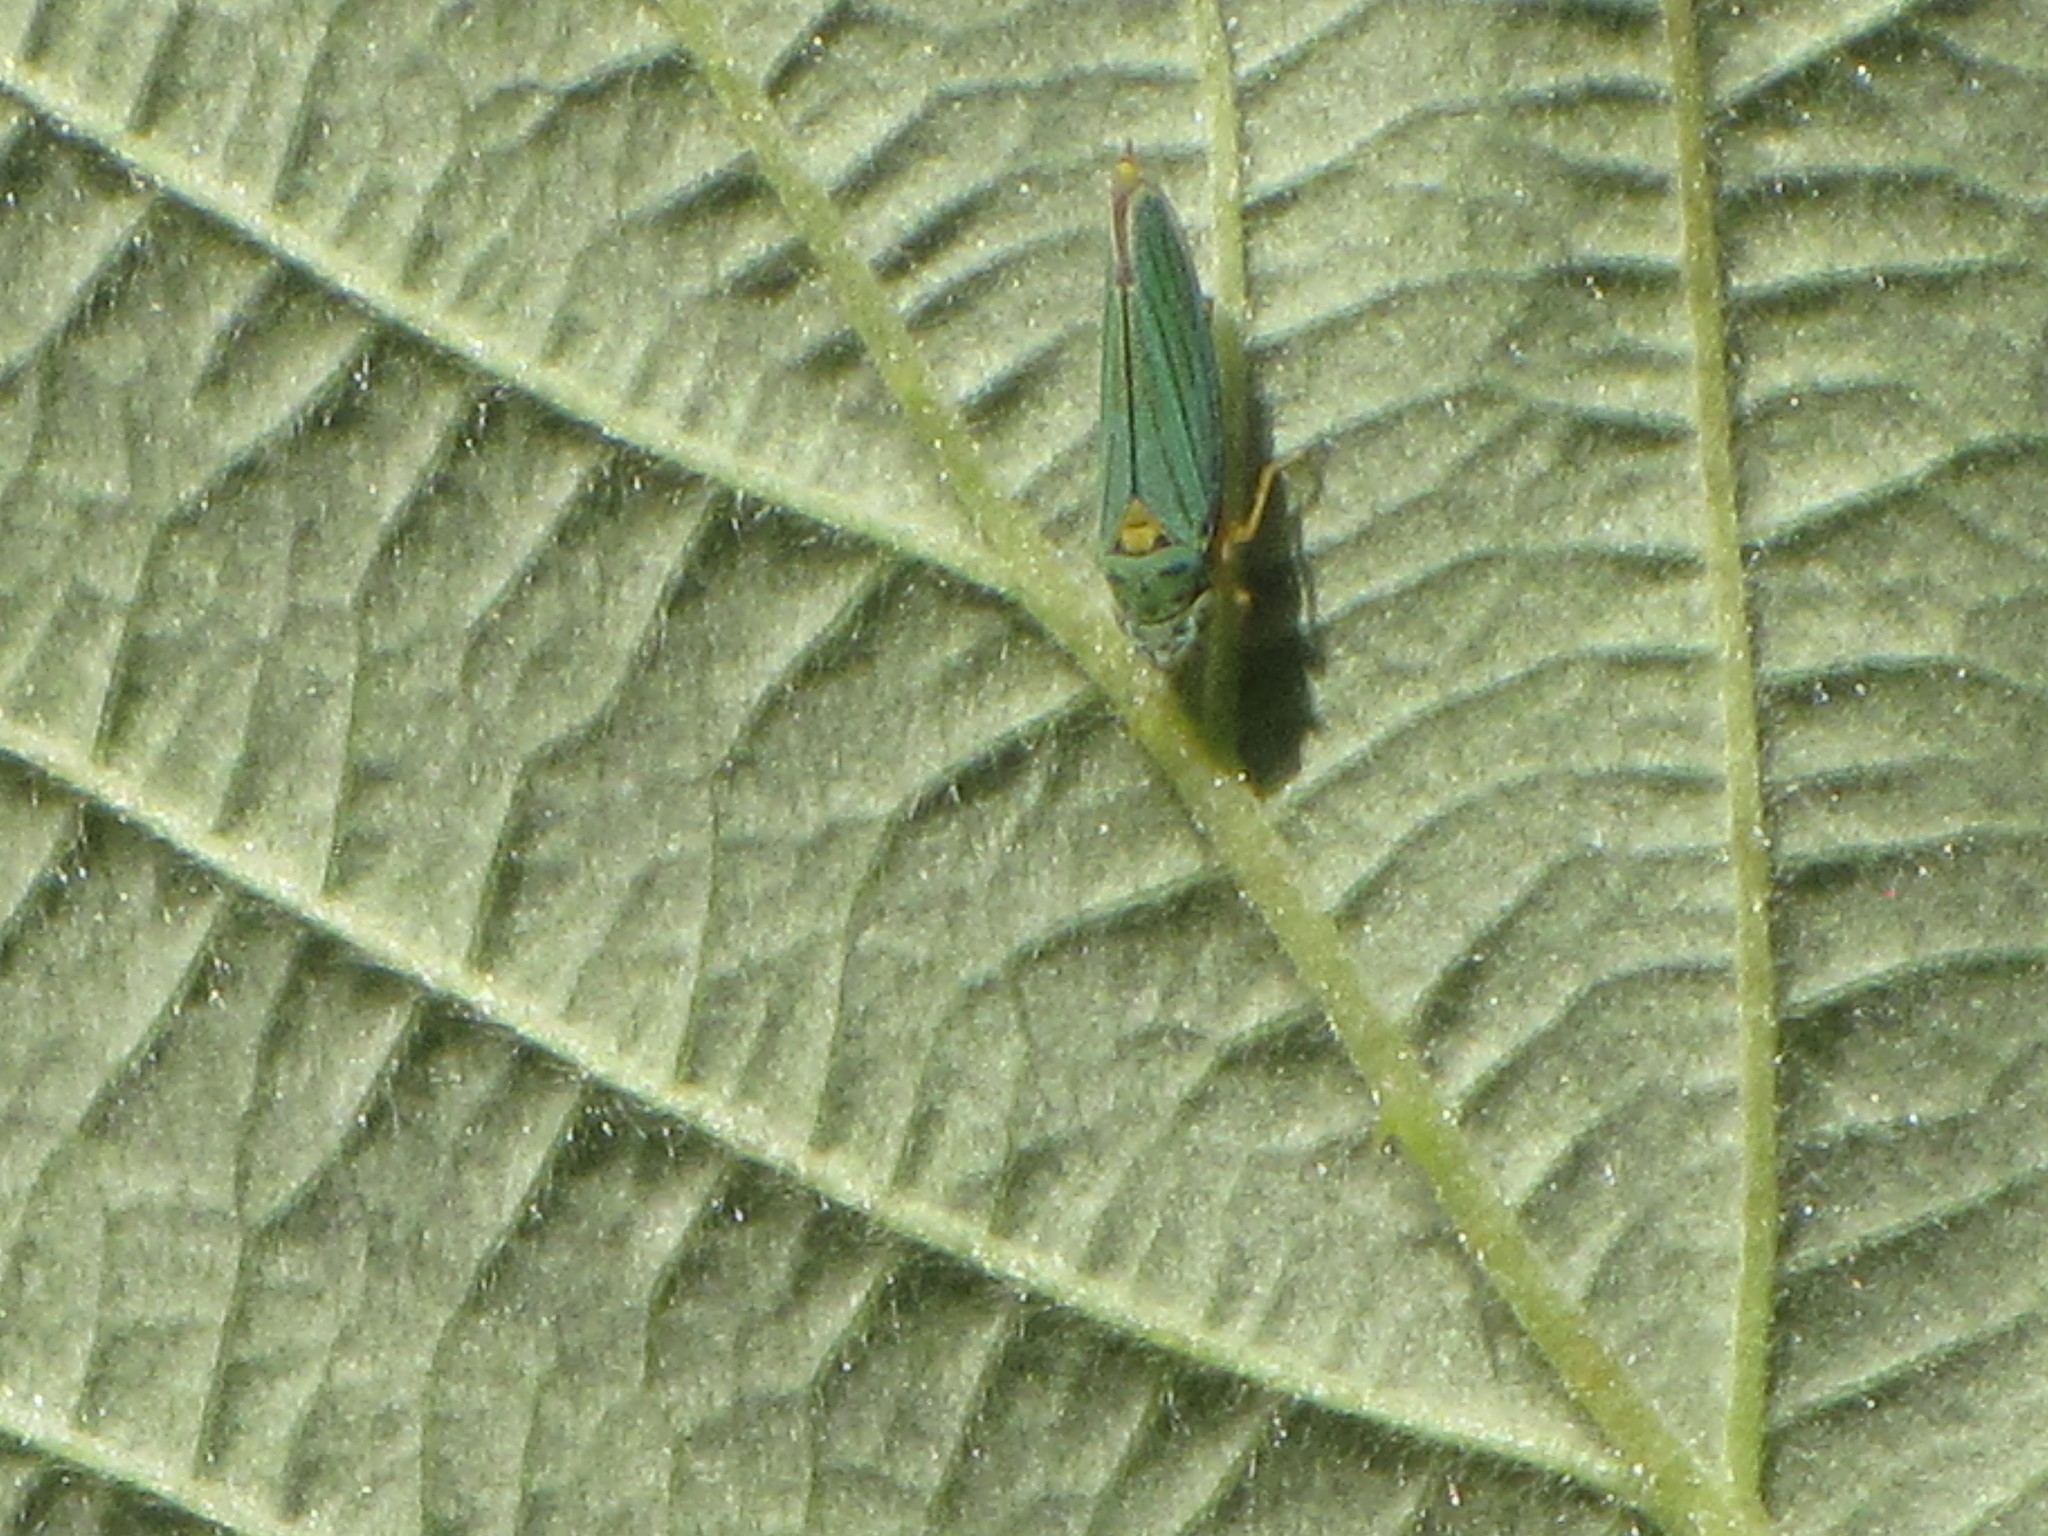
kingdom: Animalia
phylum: Arthropoda
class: Insecta
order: Hemiptera
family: Cicadellidae
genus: Graphocephala
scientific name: Graphocephala atropunctata
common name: Blue-green sharpshooter
